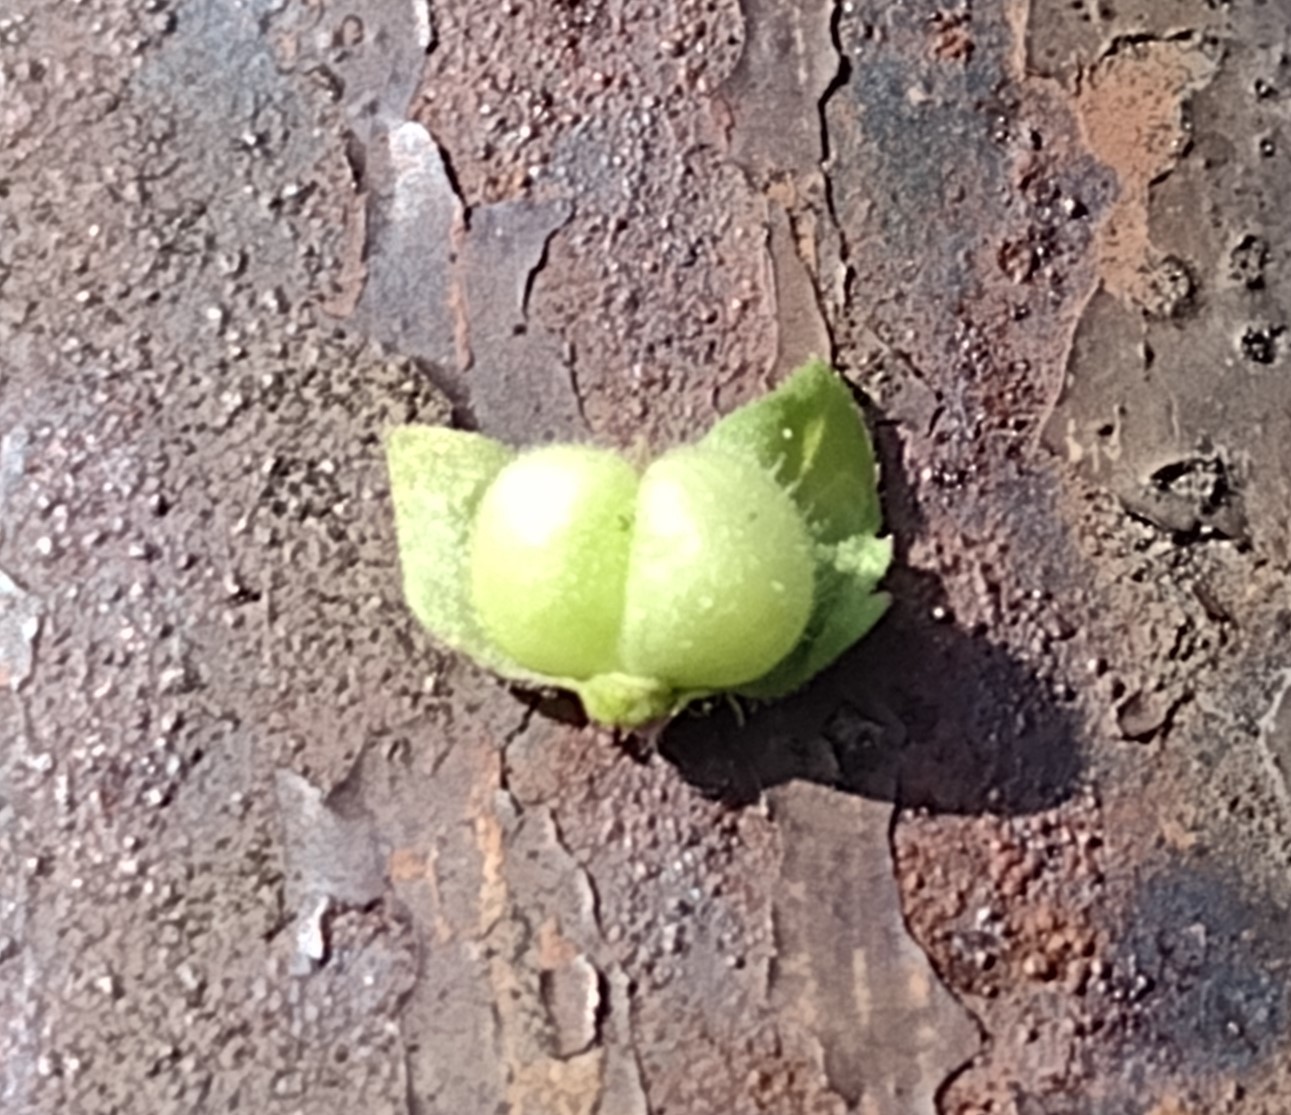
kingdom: Plantae
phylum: Tracheophyta
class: Magnoliopsida
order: Lamiales
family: Plantaginaceae
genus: Veronica
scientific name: Veronica polita
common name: Grey field-speedwell
